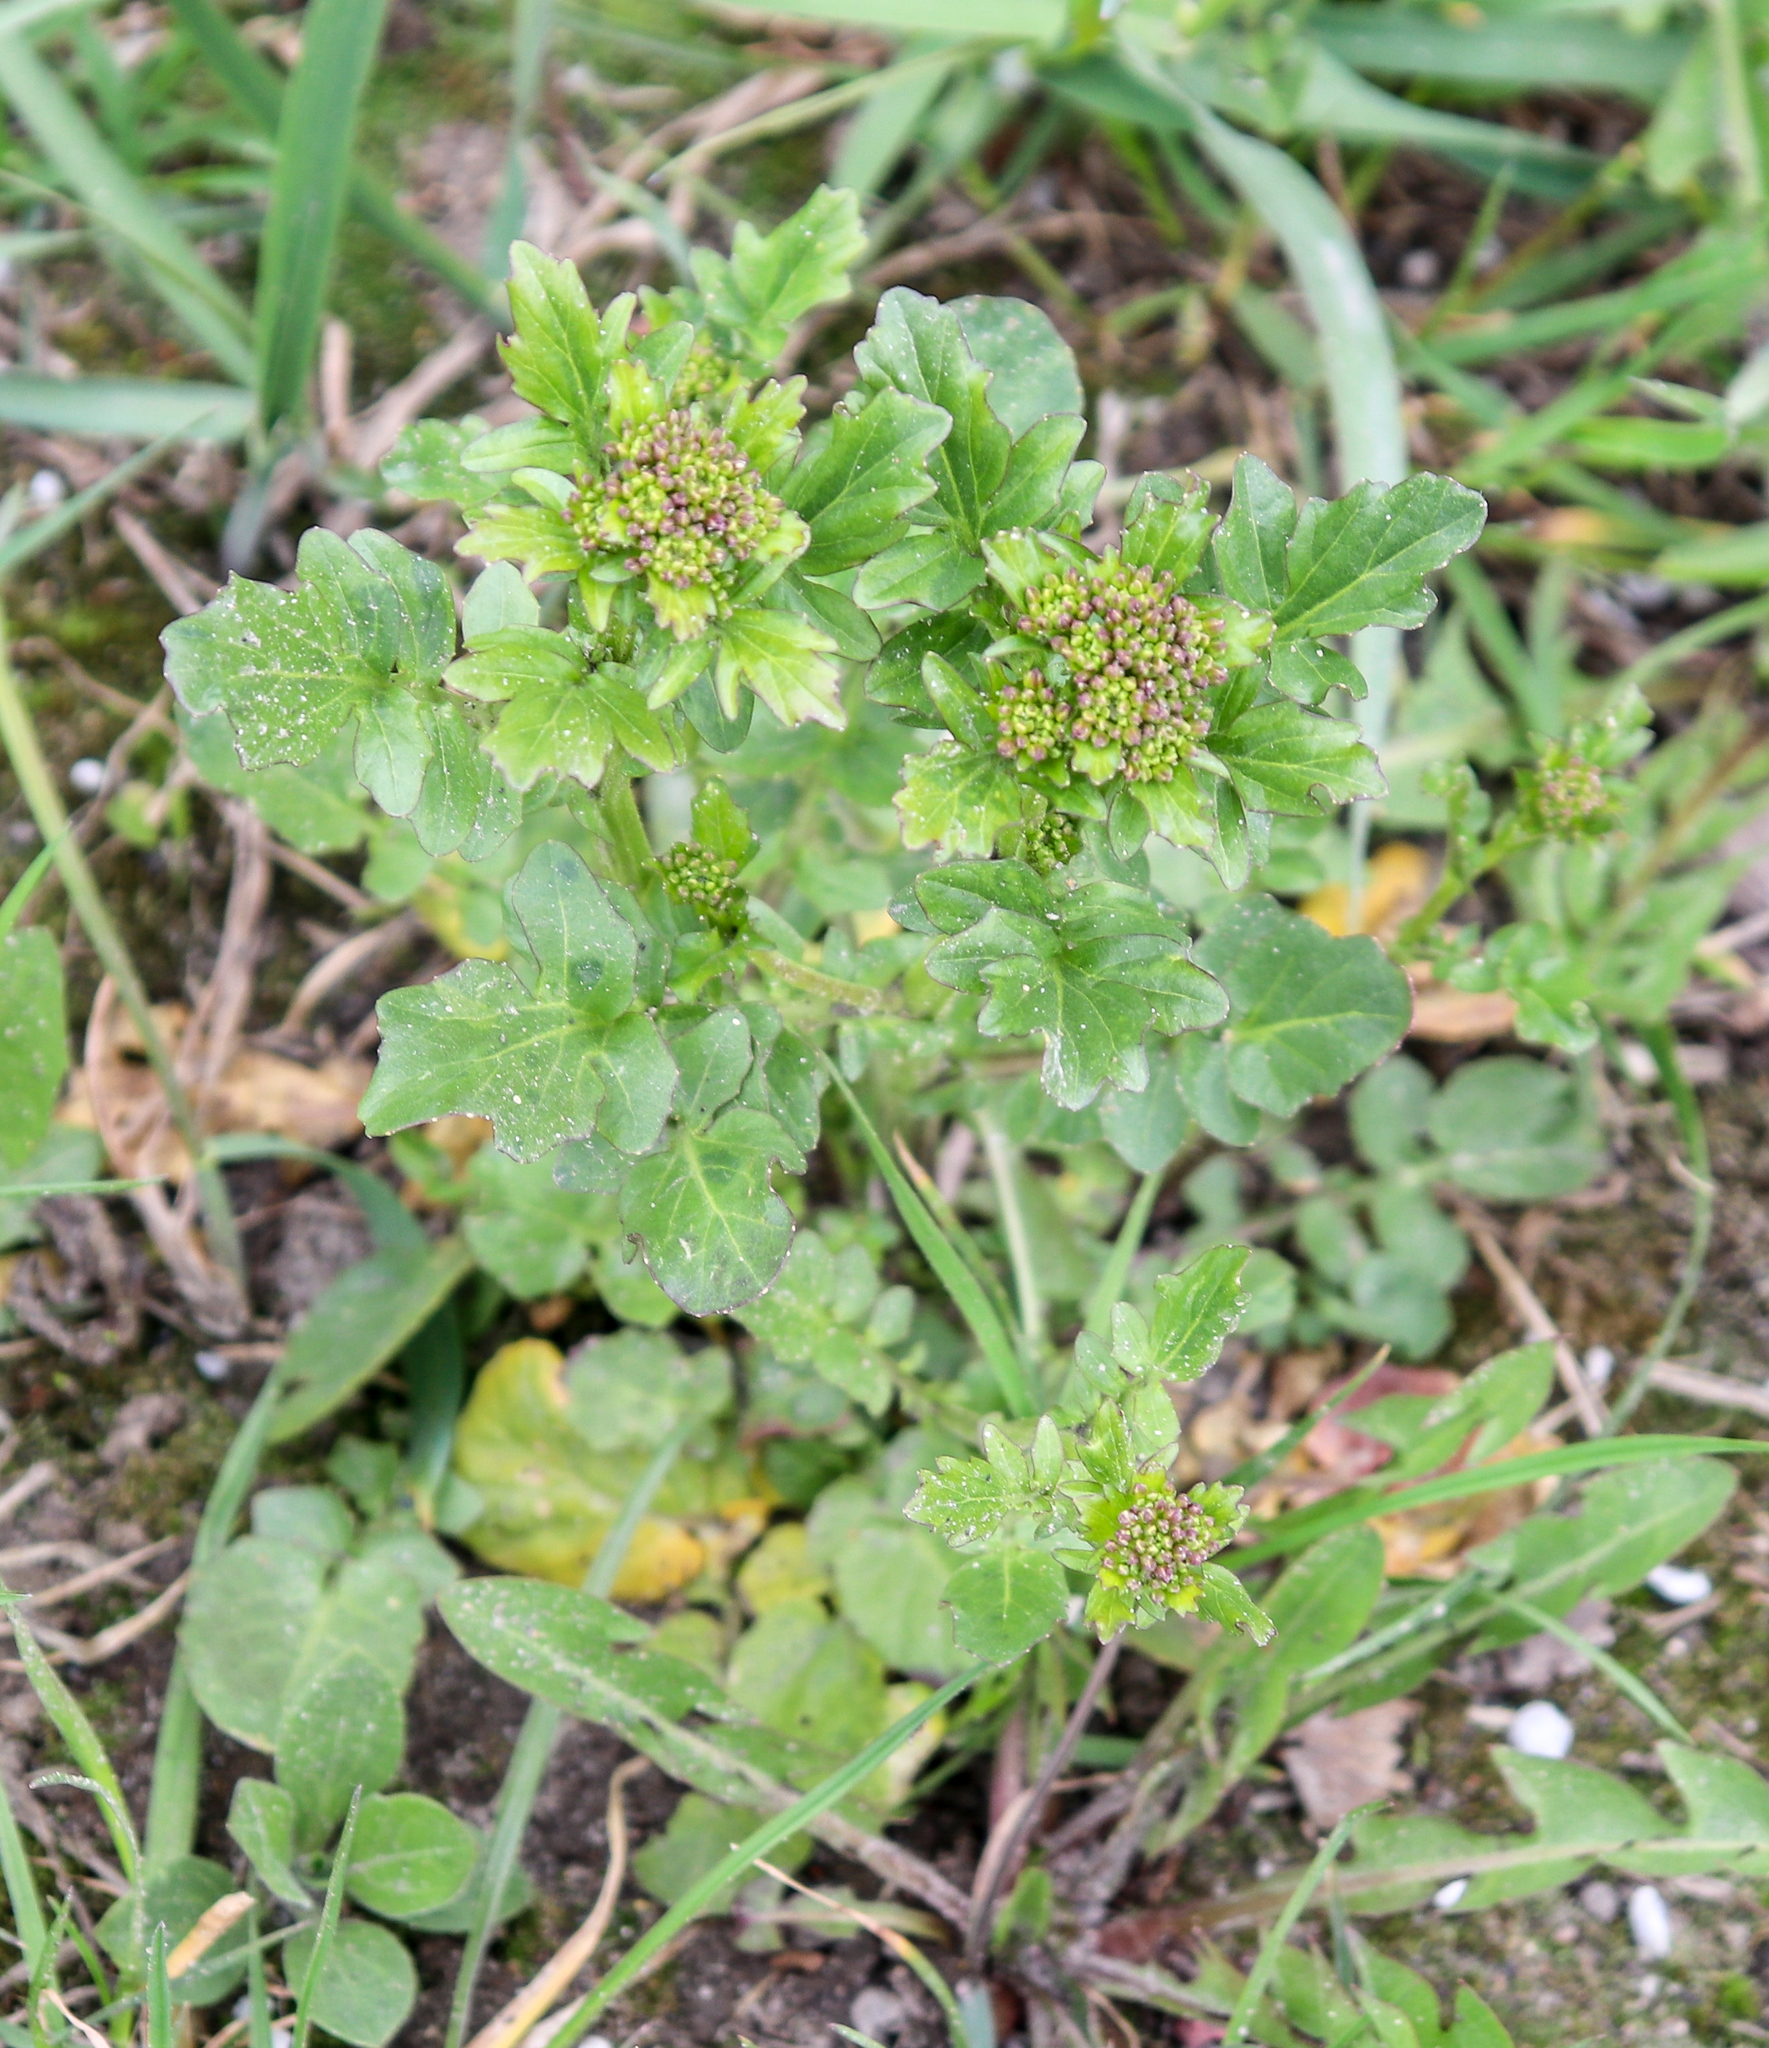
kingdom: Plantae
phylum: Tracheophyta
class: Magnoliopsida
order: Brassicales
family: Brassicaceae
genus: Barbarea
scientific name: Barbarea vulgaris
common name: Cressy-greens
